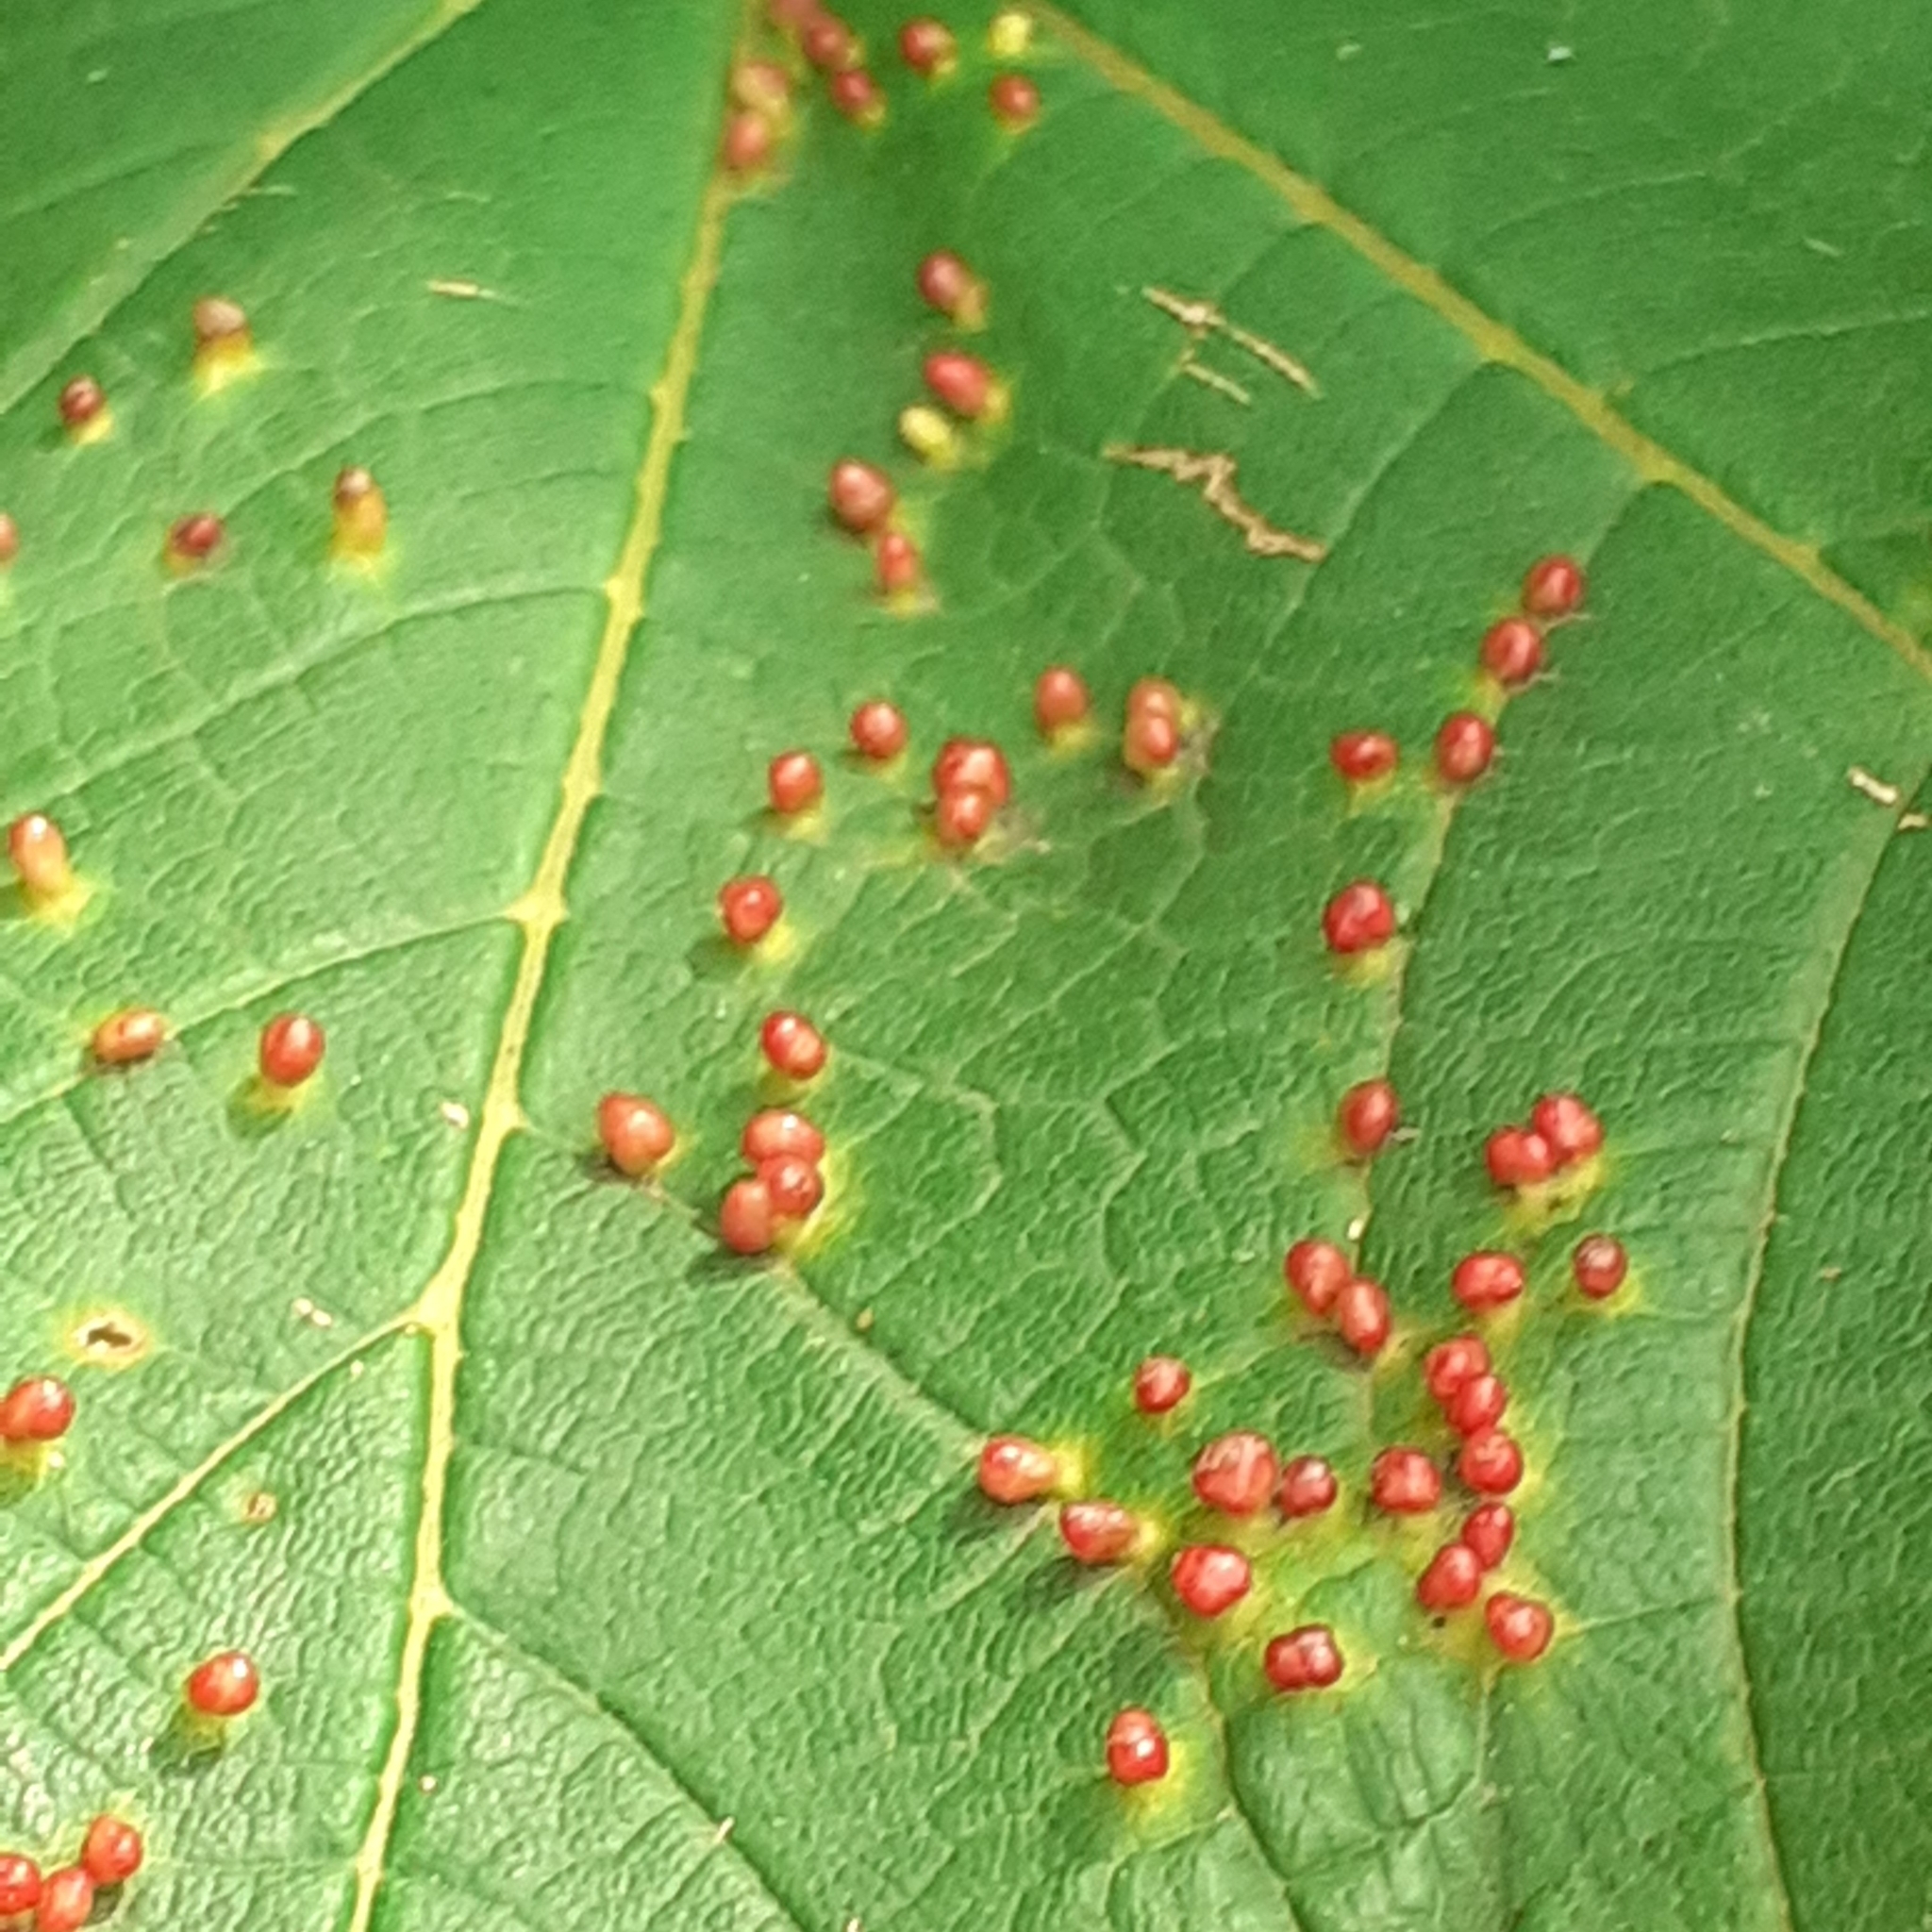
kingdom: Animalia
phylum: Arthropoda
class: Arachnida
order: Trombidiformes
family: Eriophyidae
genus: Aceria
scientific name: Aceria cephaloneus
